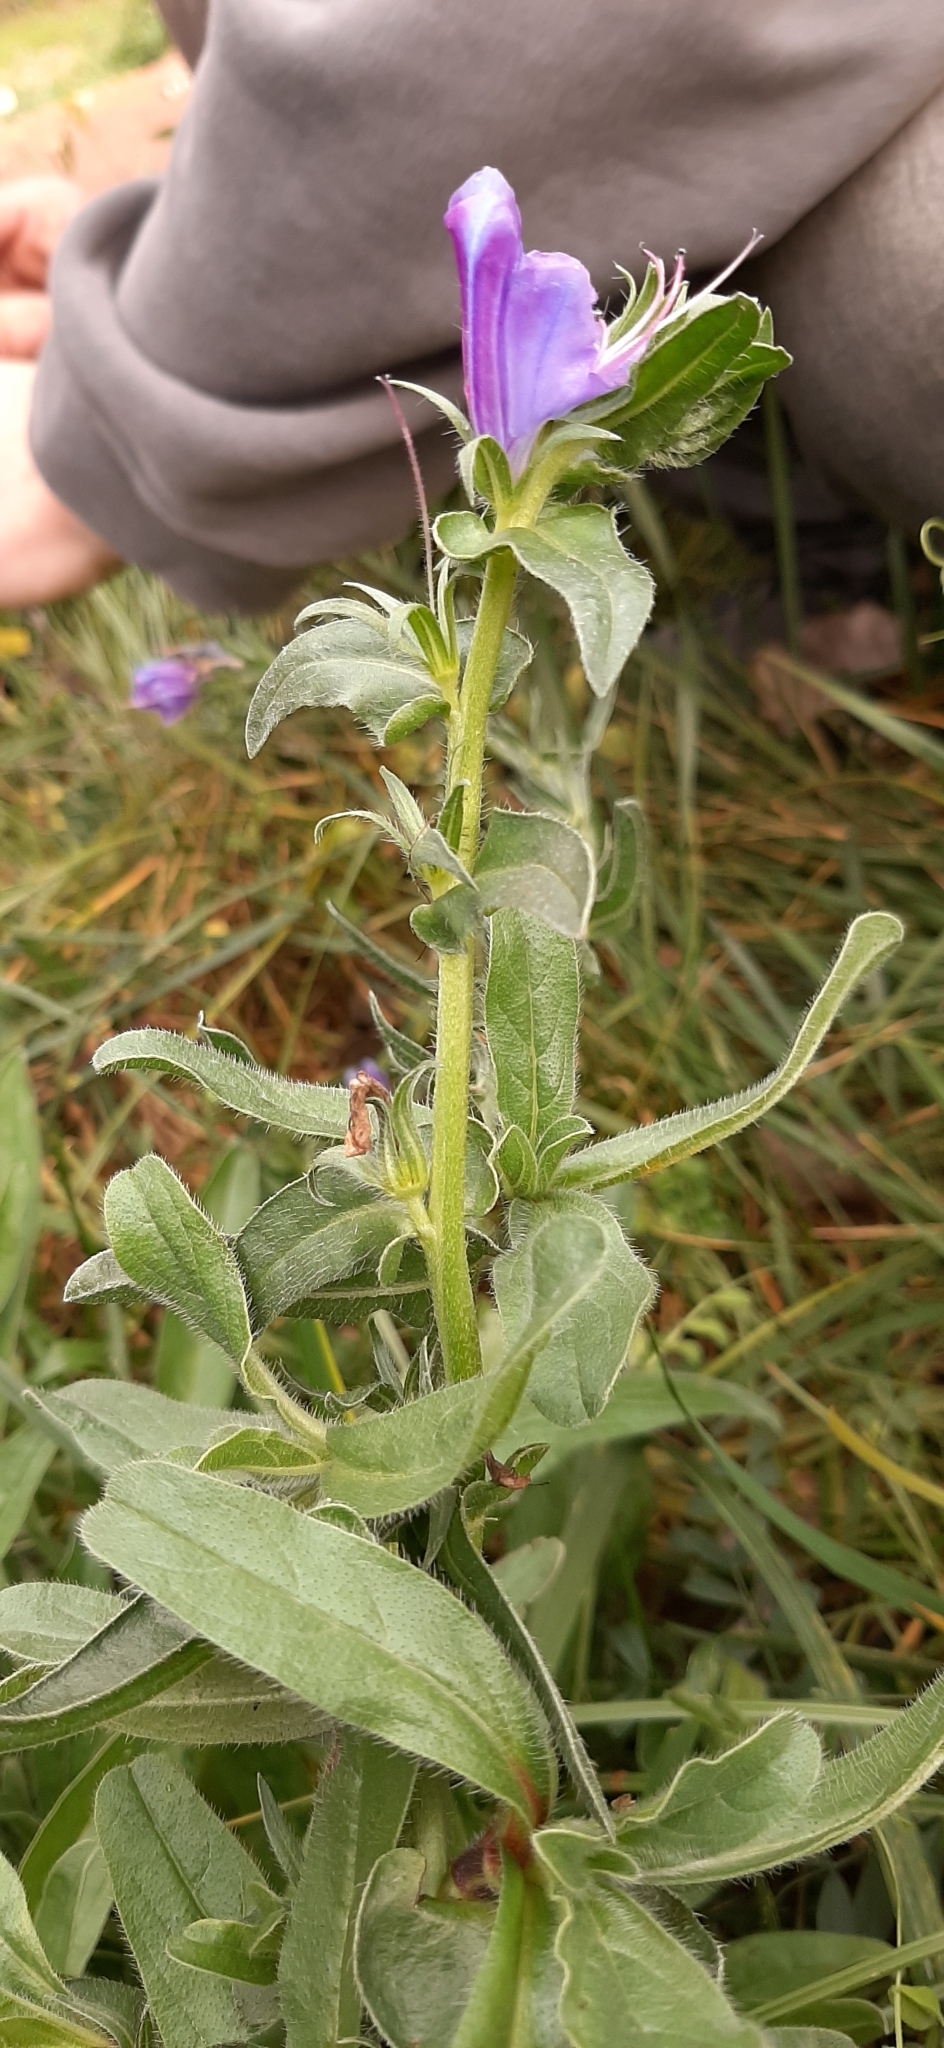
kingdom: Plantae
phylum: Tracheophyta
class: Magnoliopsida
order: Boraginales
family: Boraginaceae
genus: Echium
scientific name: Echium plantagineum
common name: Purple viper's-bugloss
